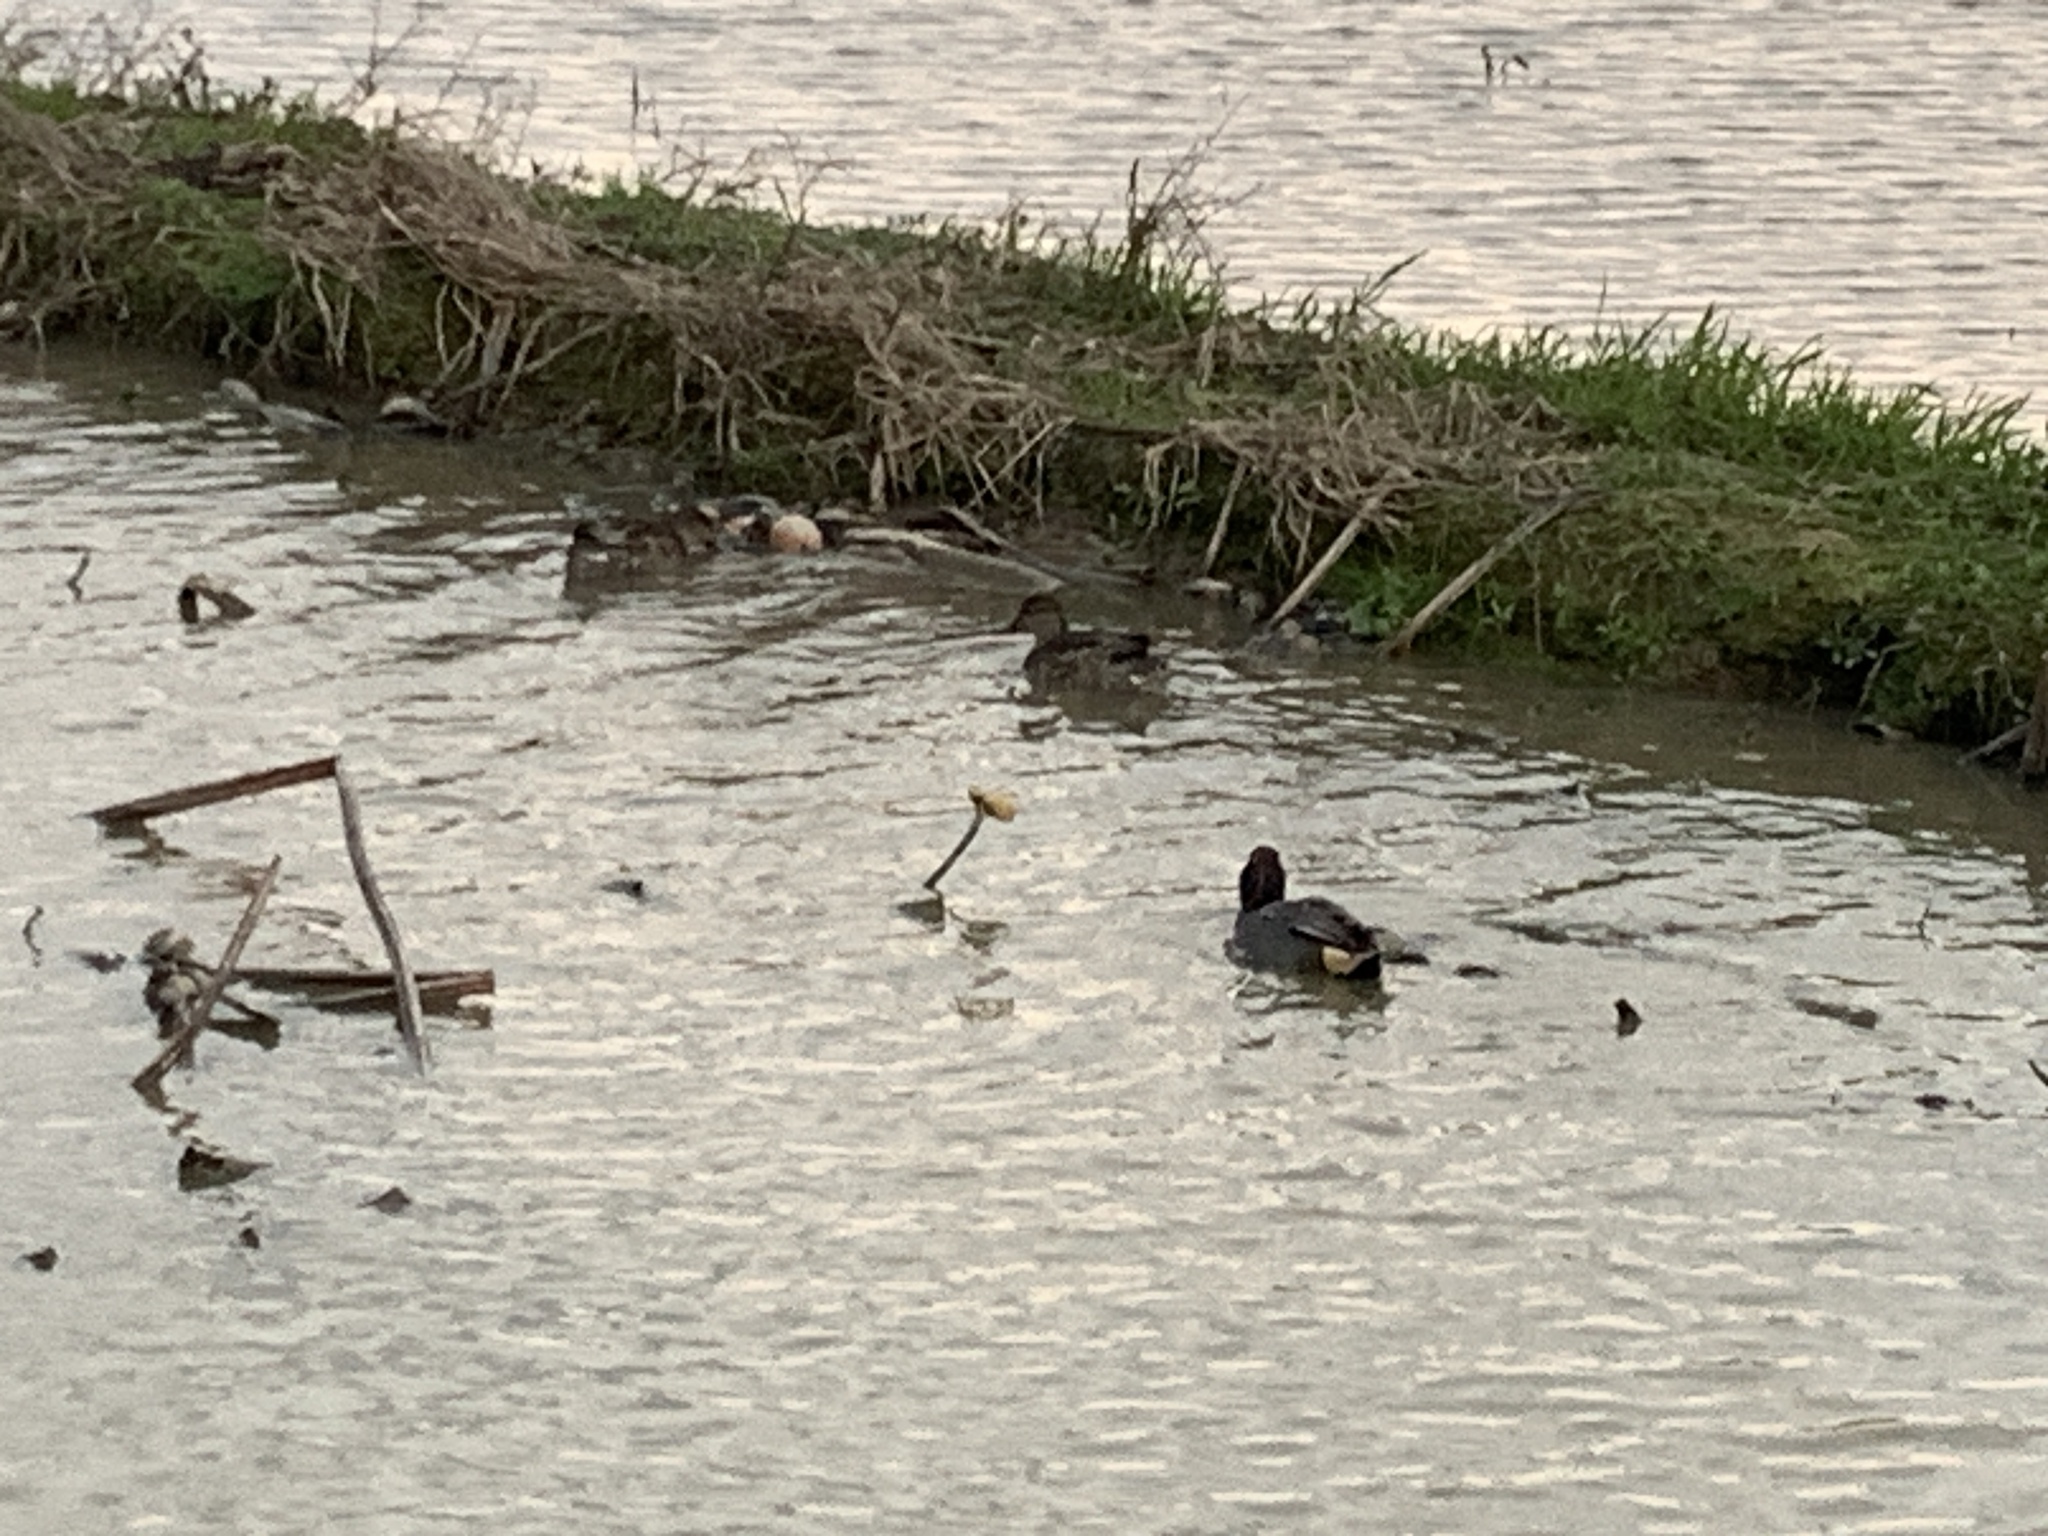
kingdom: Animalia
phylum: Chordata
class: Aves
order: Anseriformes
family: Anatidae
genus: Anas
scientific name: Anas crecca
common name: Eurasian teal
